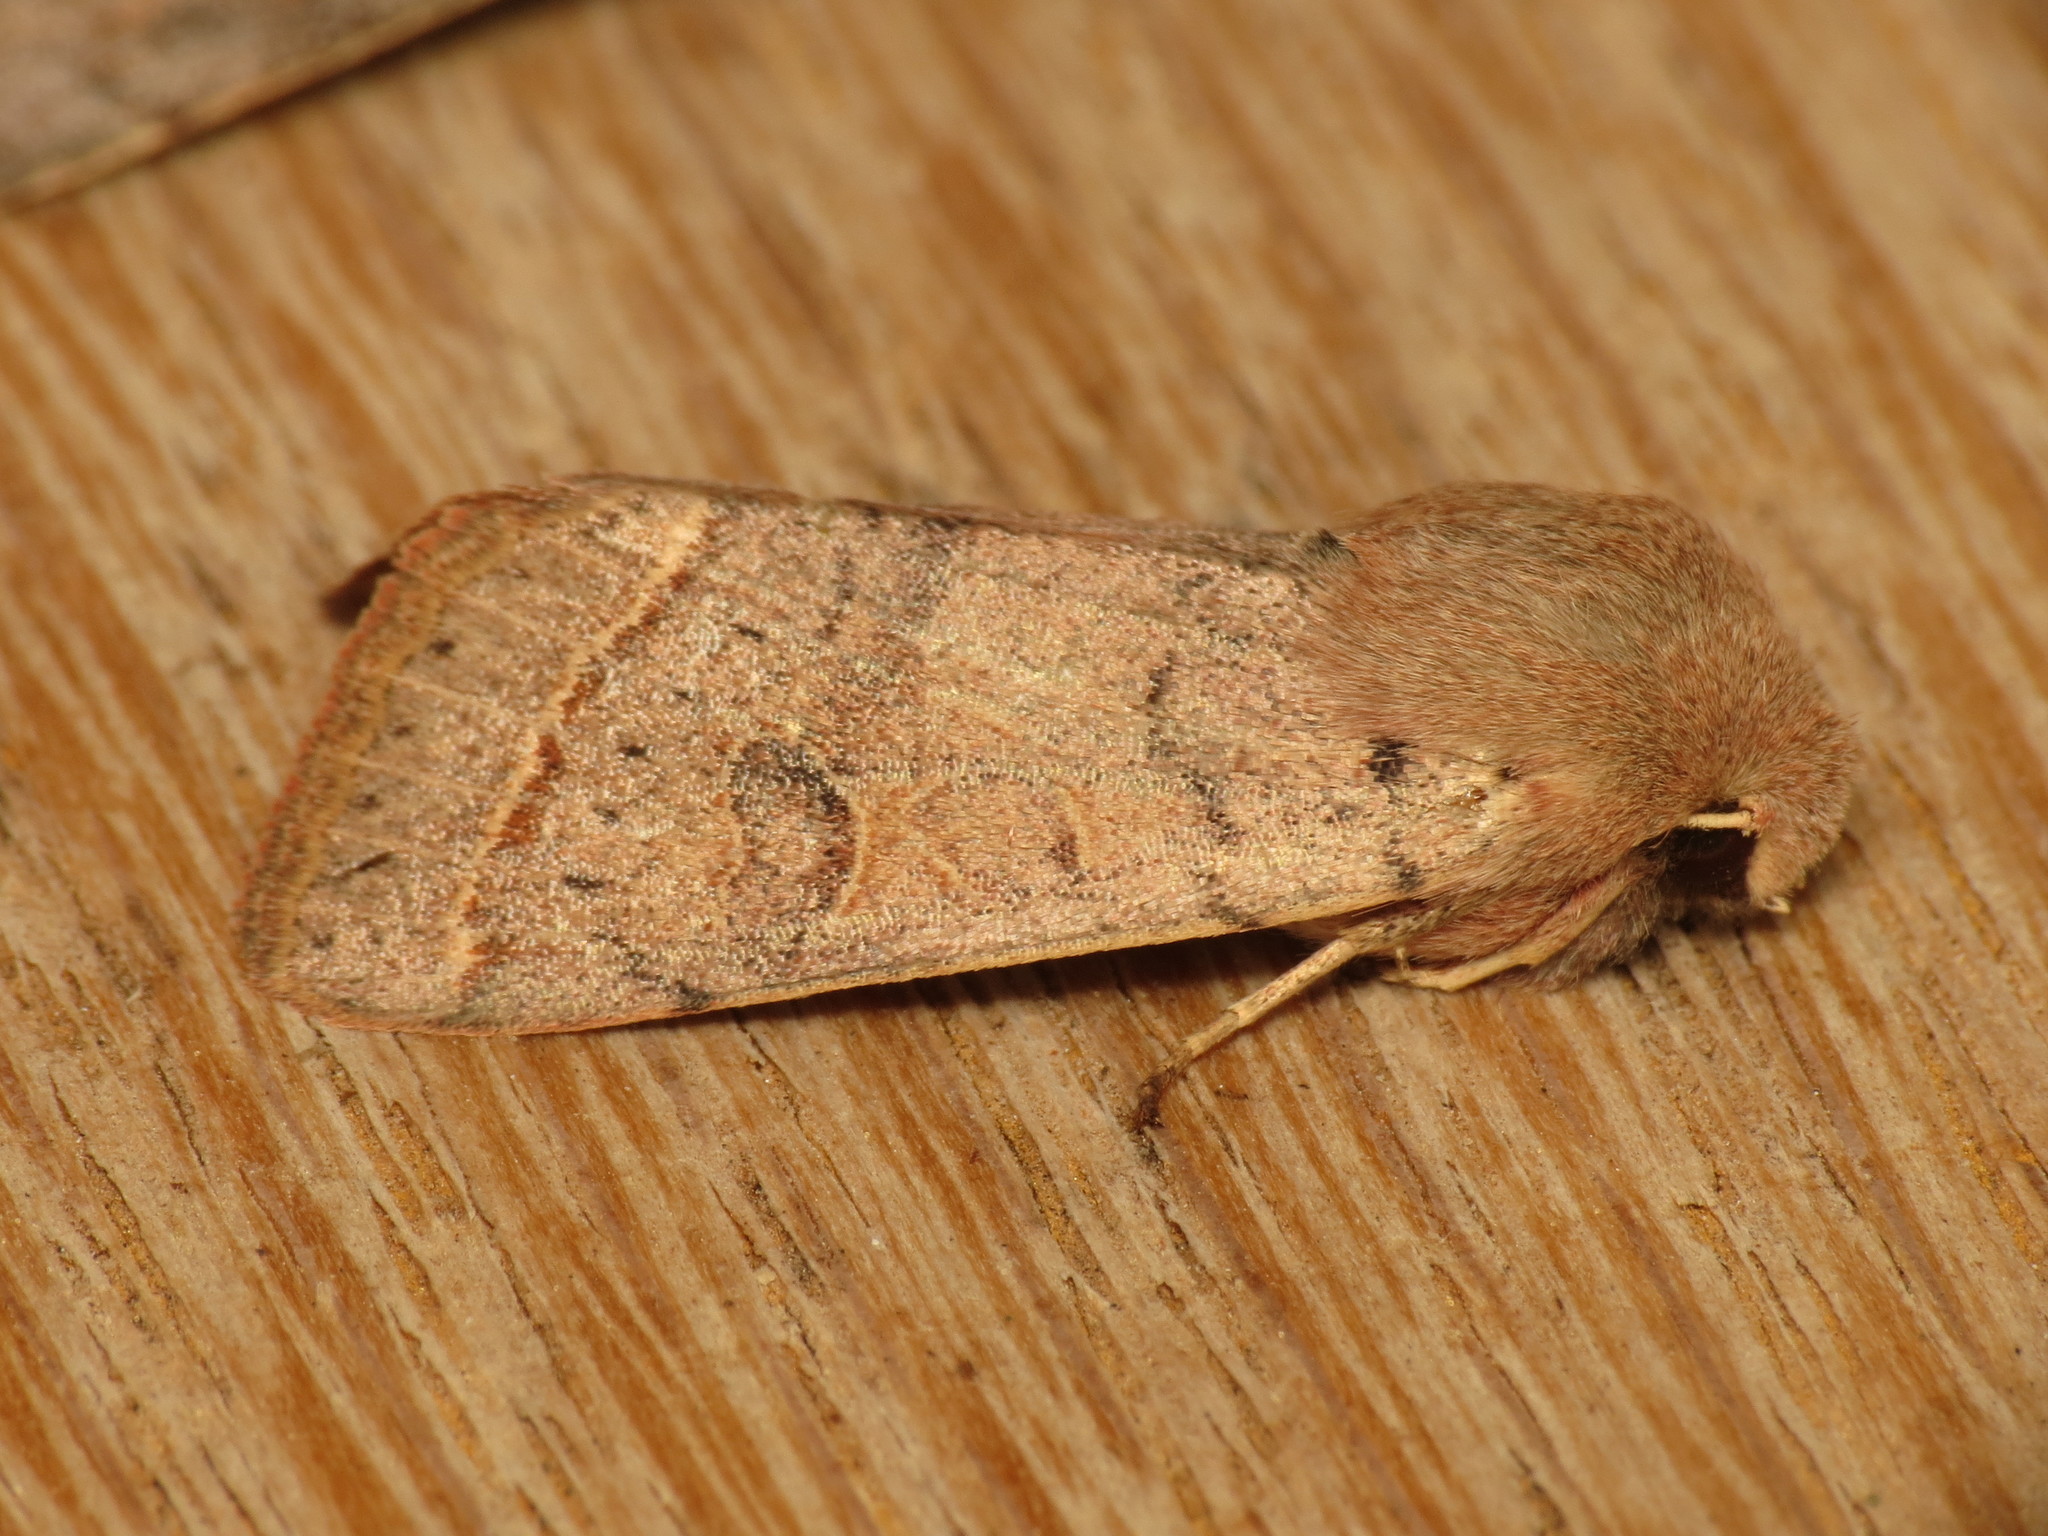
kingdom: Animalia
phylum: Arthropoda
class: Insecta
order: Lepidoptera
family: Noctuidae
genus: Orthosia
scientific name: Orthosia cerasi
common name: Common quaker
